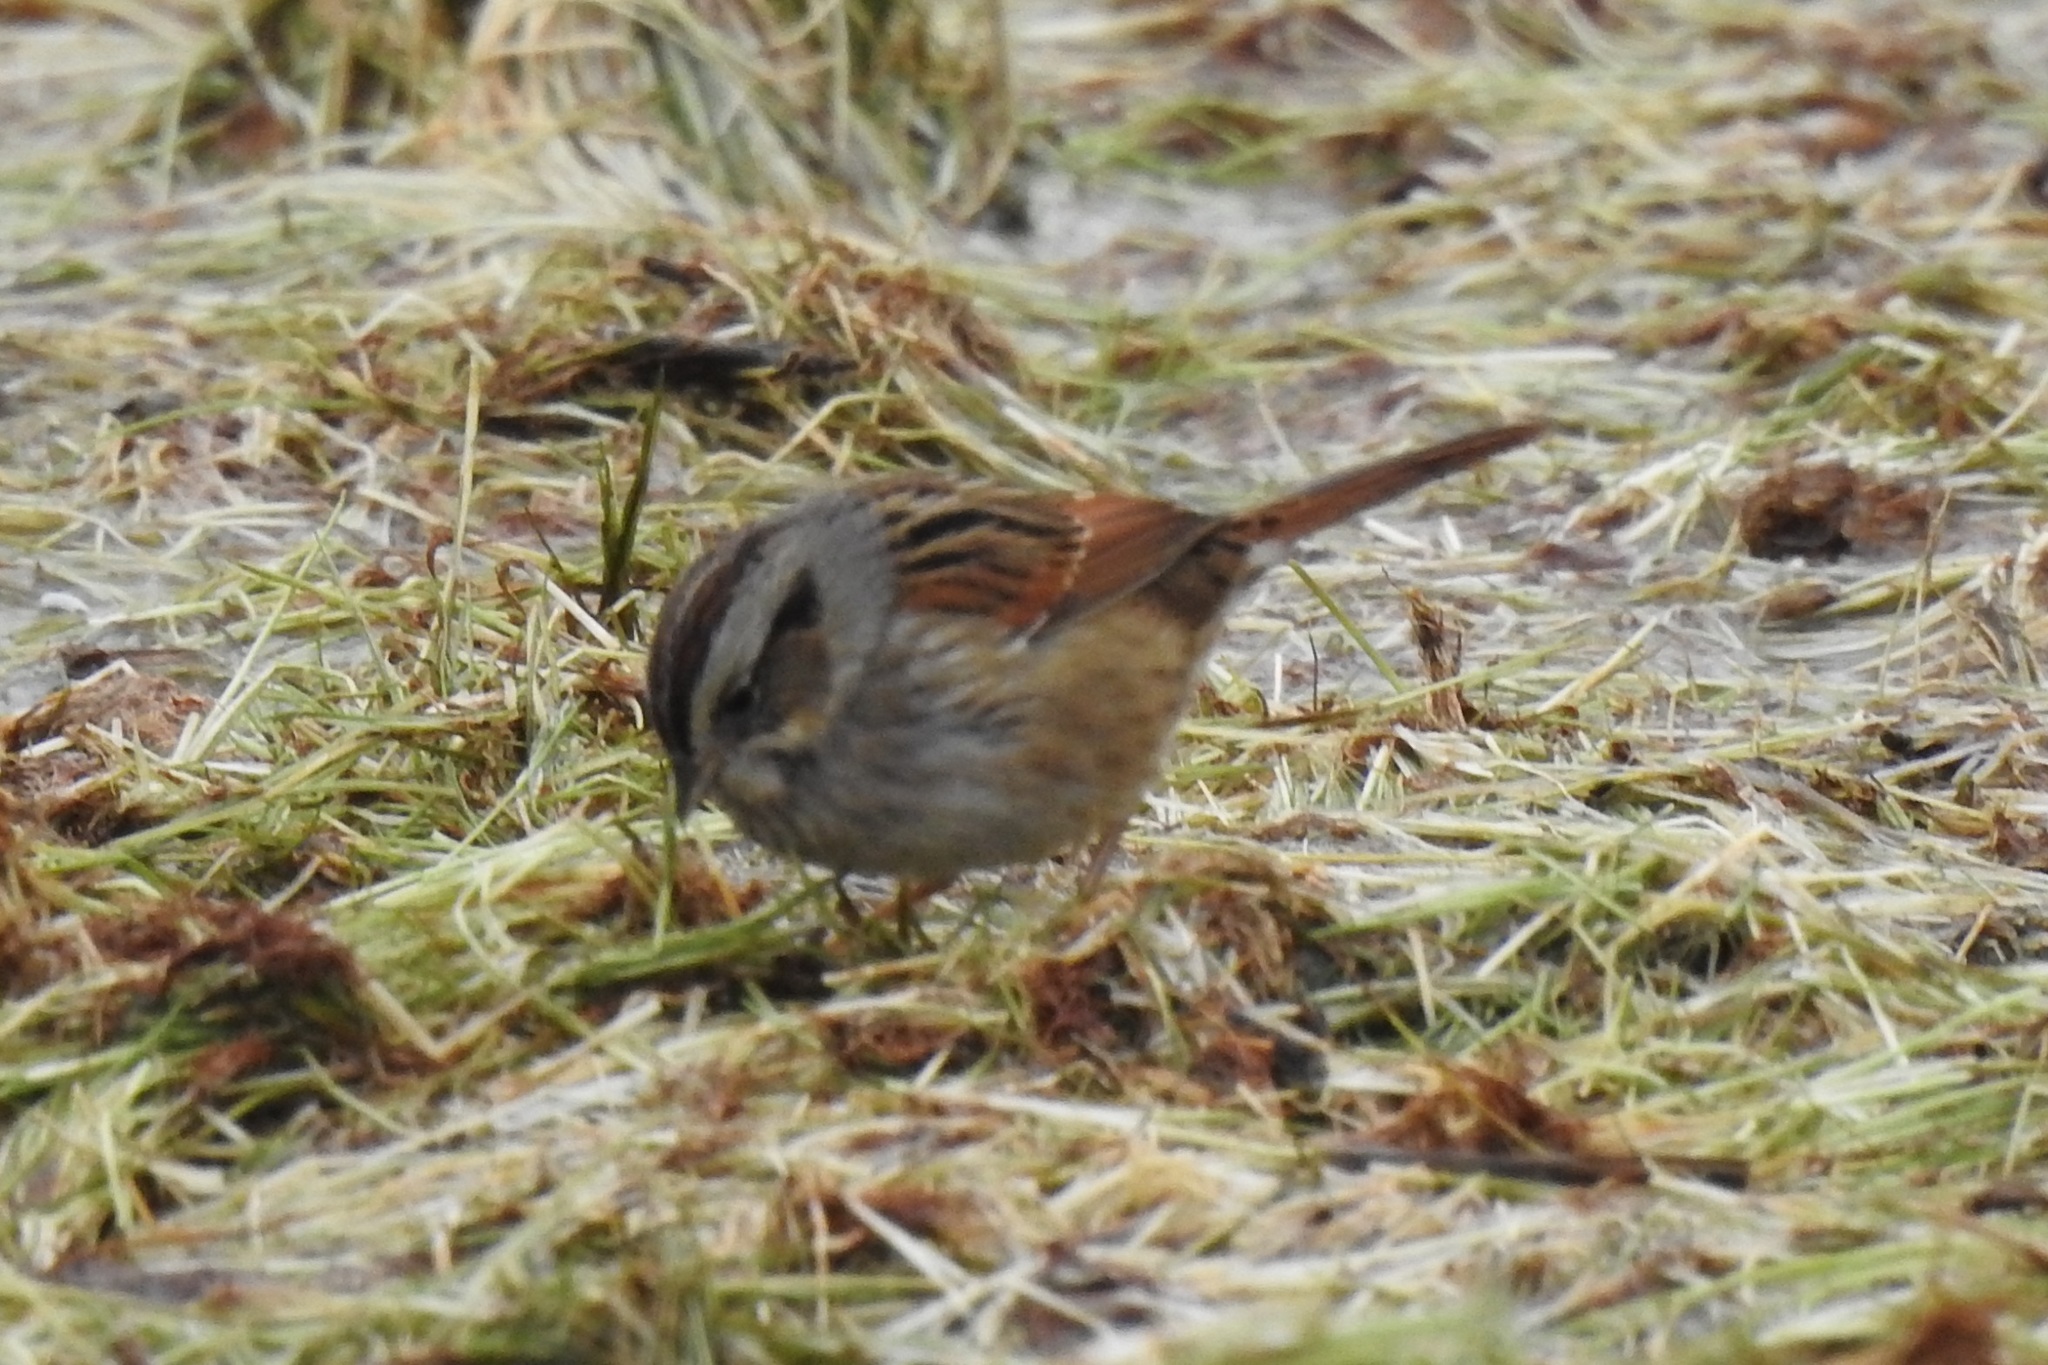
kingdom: Animalia
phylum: Chordata
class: Aves
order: Passeriformes
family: Passerellidae
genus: Melospiza
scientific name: Melospiza georgiana
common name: Swamp sparrow
